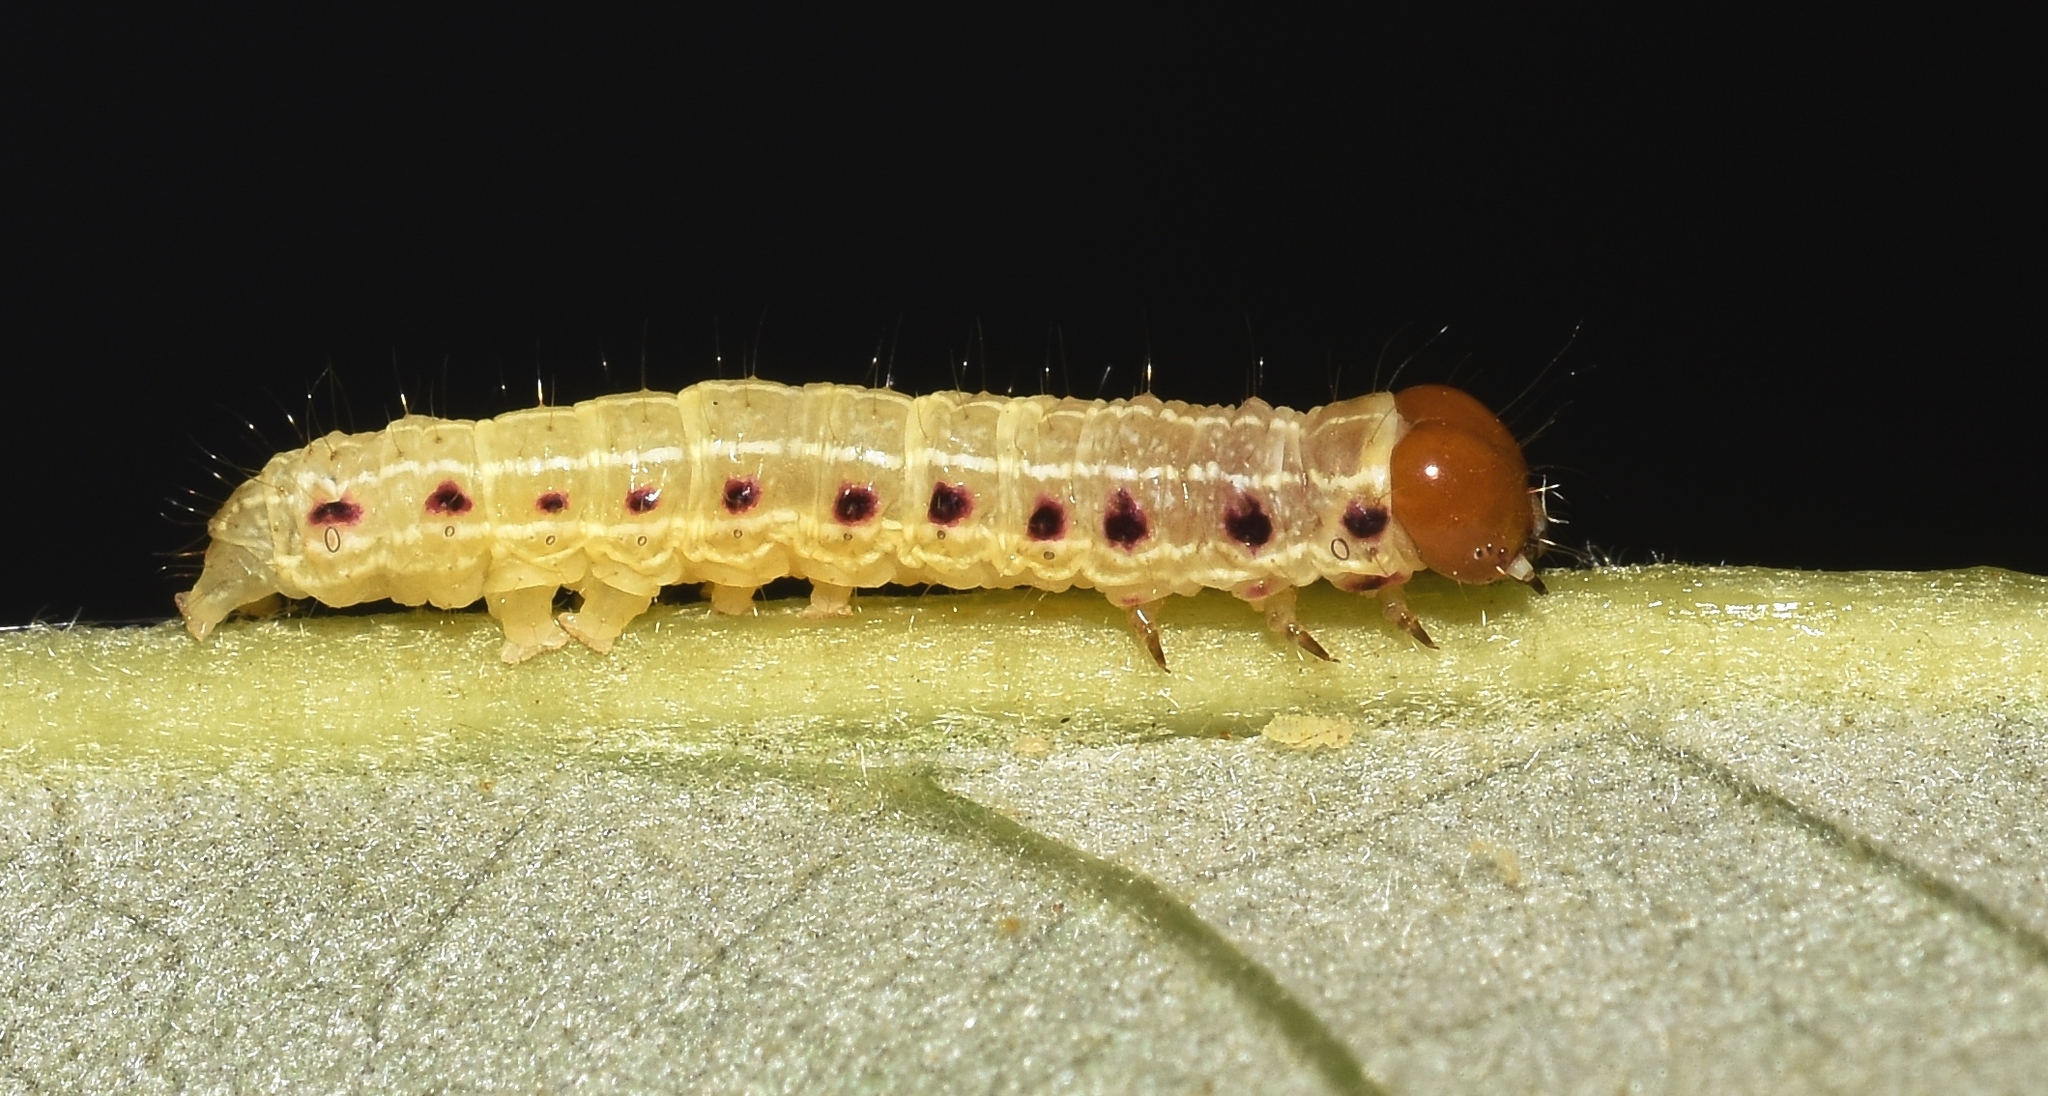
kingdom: Animalia
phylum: Arthropoda
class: Insecta
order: Lepidoptera
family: Noctuidae
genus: Achatia
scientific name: Achatia confusa
